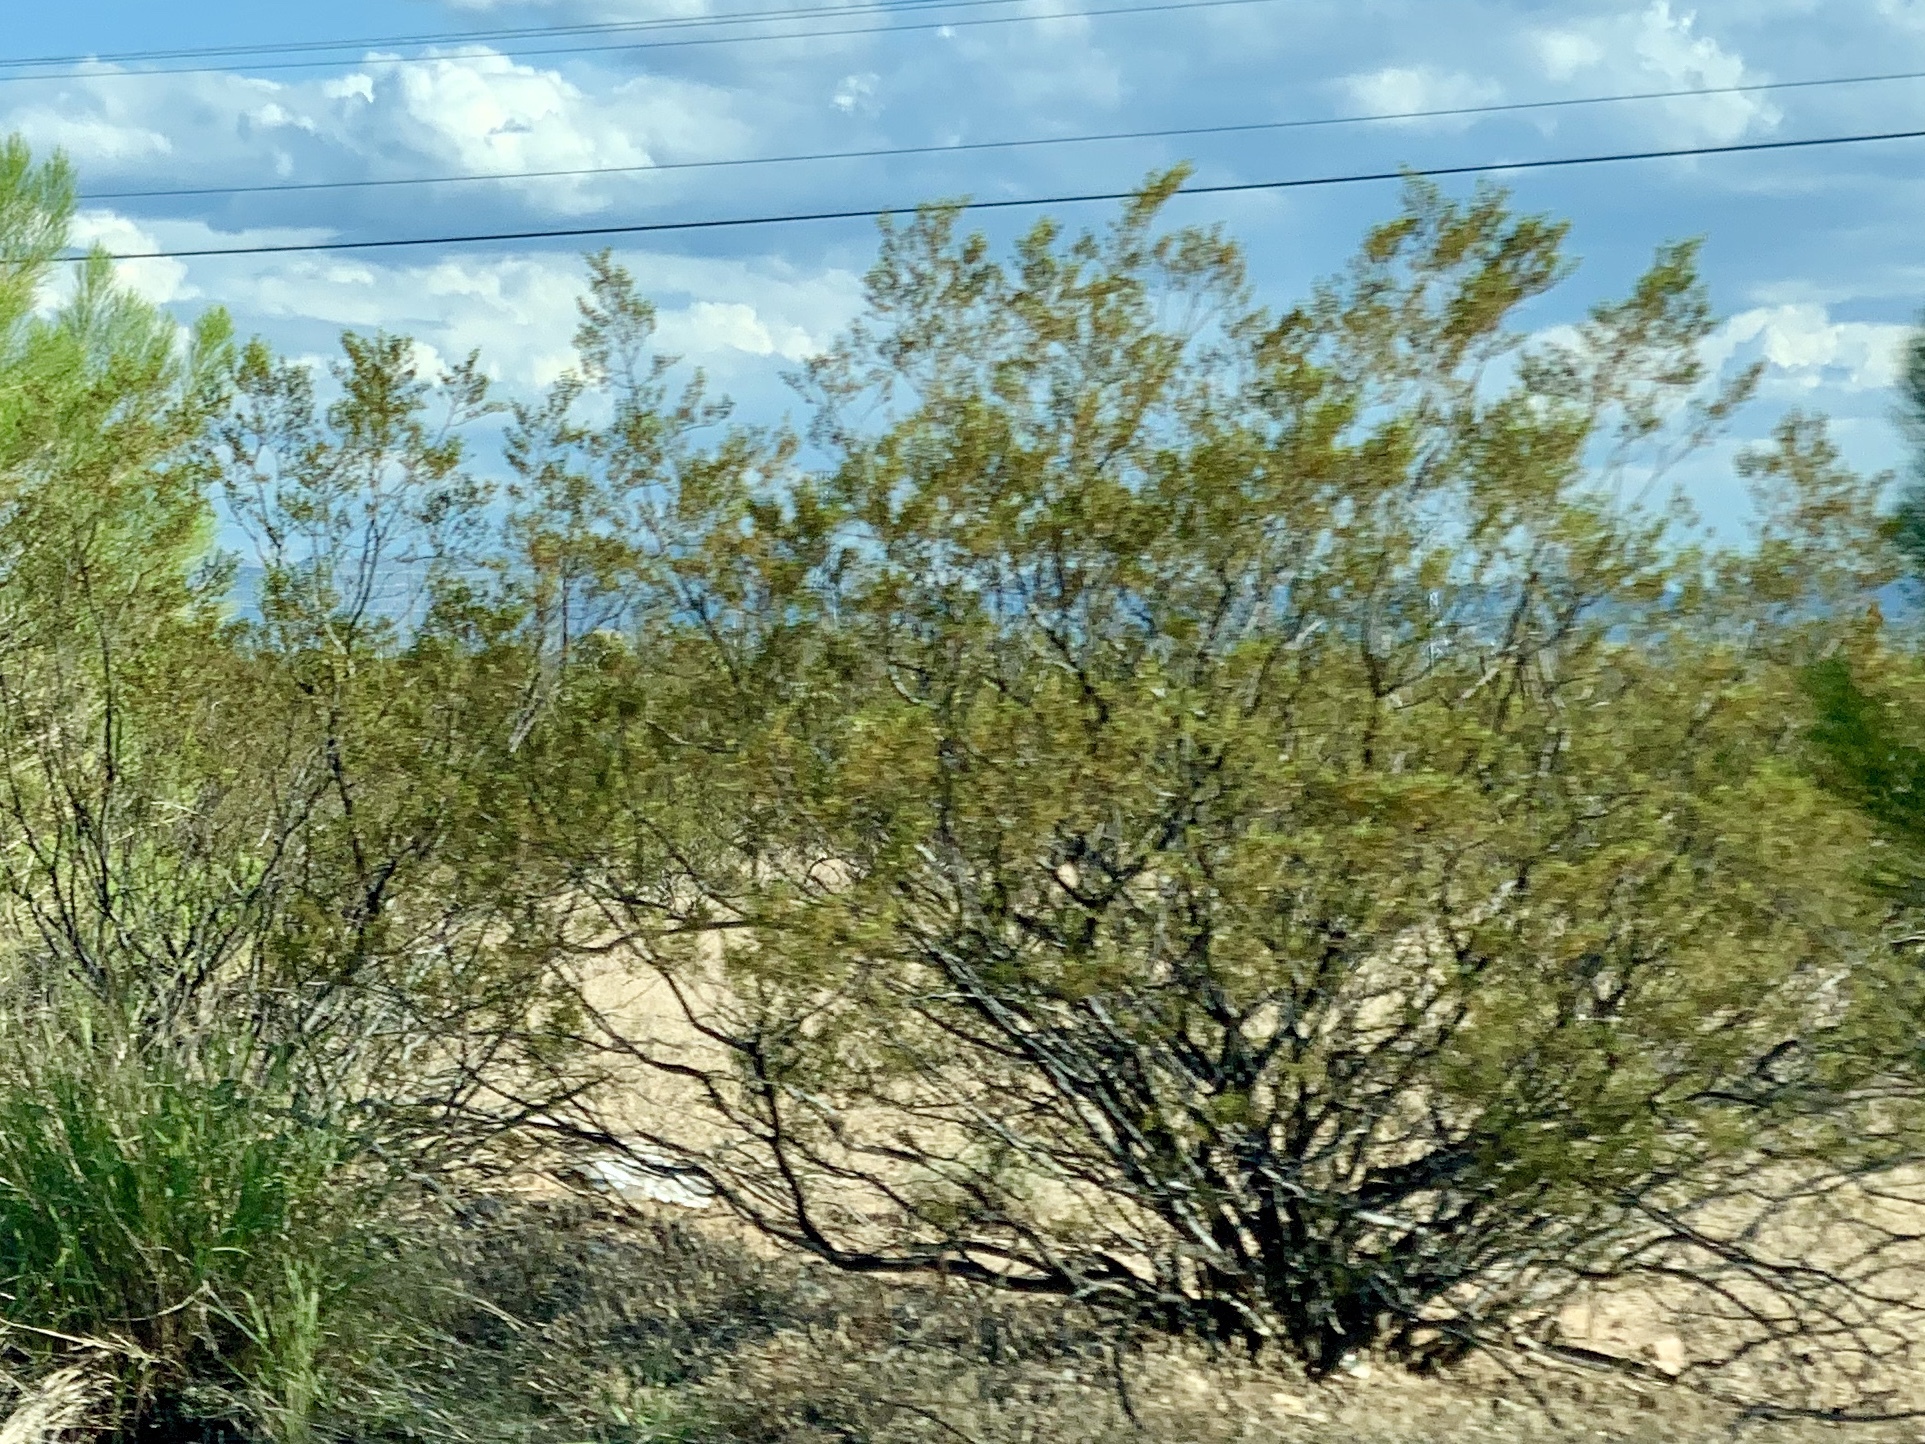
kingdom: Plantae
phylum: Tracheophyta
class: Magnoliopsida
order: Zygophyllales
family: Zygophyllaceae
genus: Larrea
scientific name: Larrea tridentata
